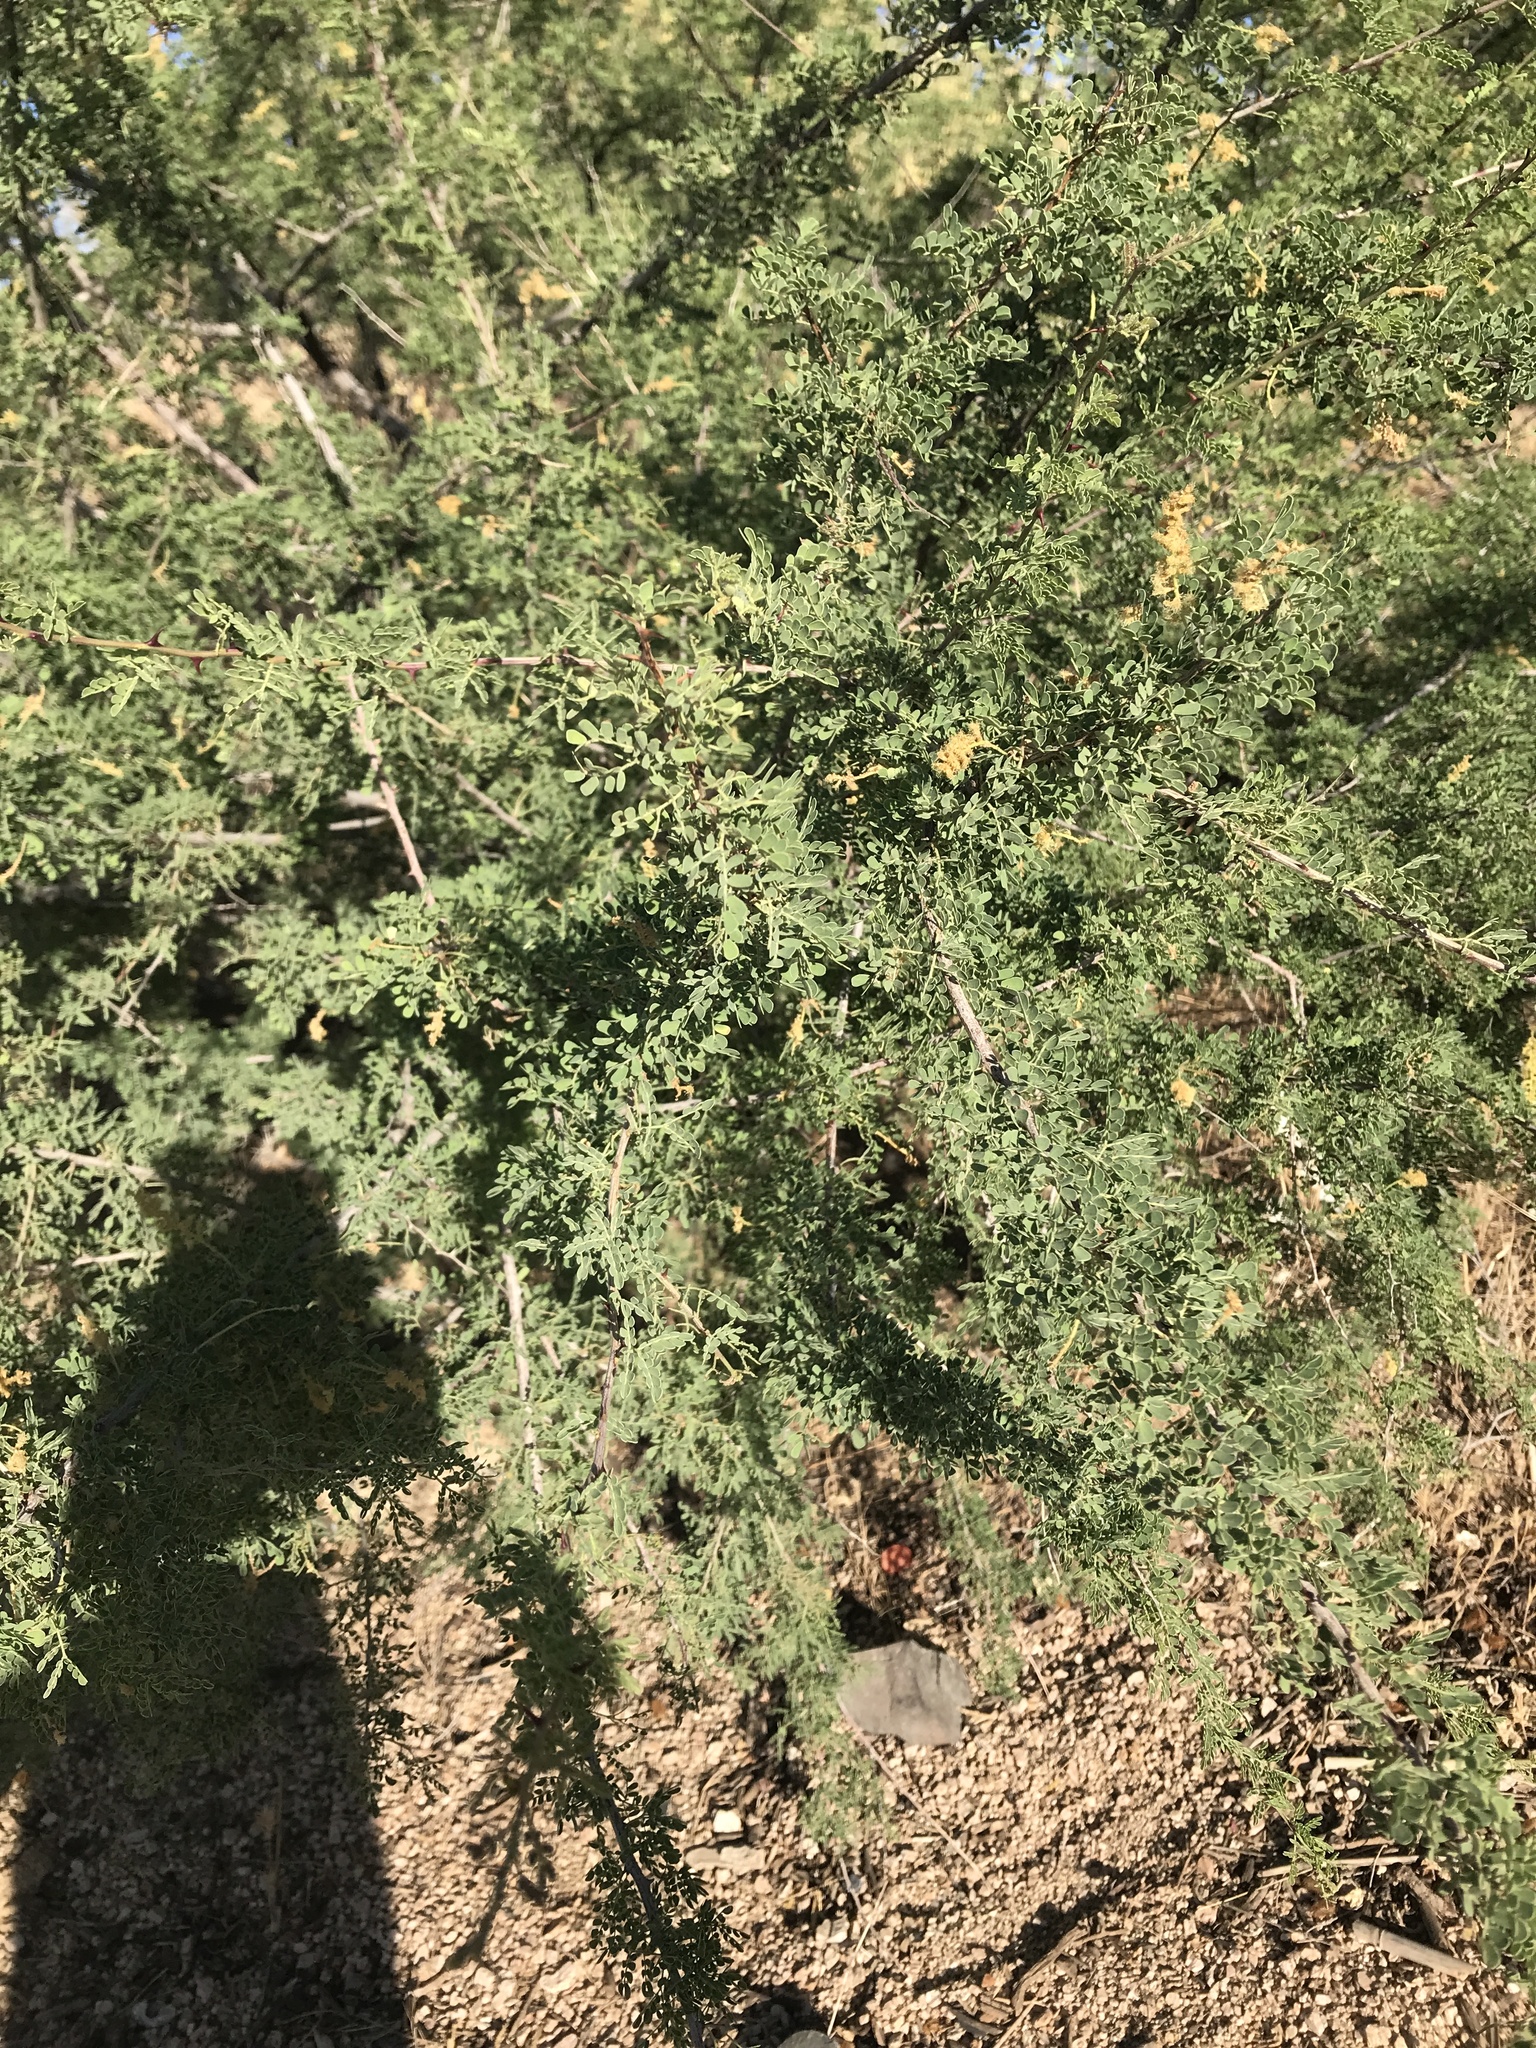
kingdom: Plantae
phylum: Tracheophyta
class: Magnoliopsida
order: Fabales
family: Fabaceae
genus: Senegalia
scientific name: Senegalia greggii
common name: Texas-mimosa
